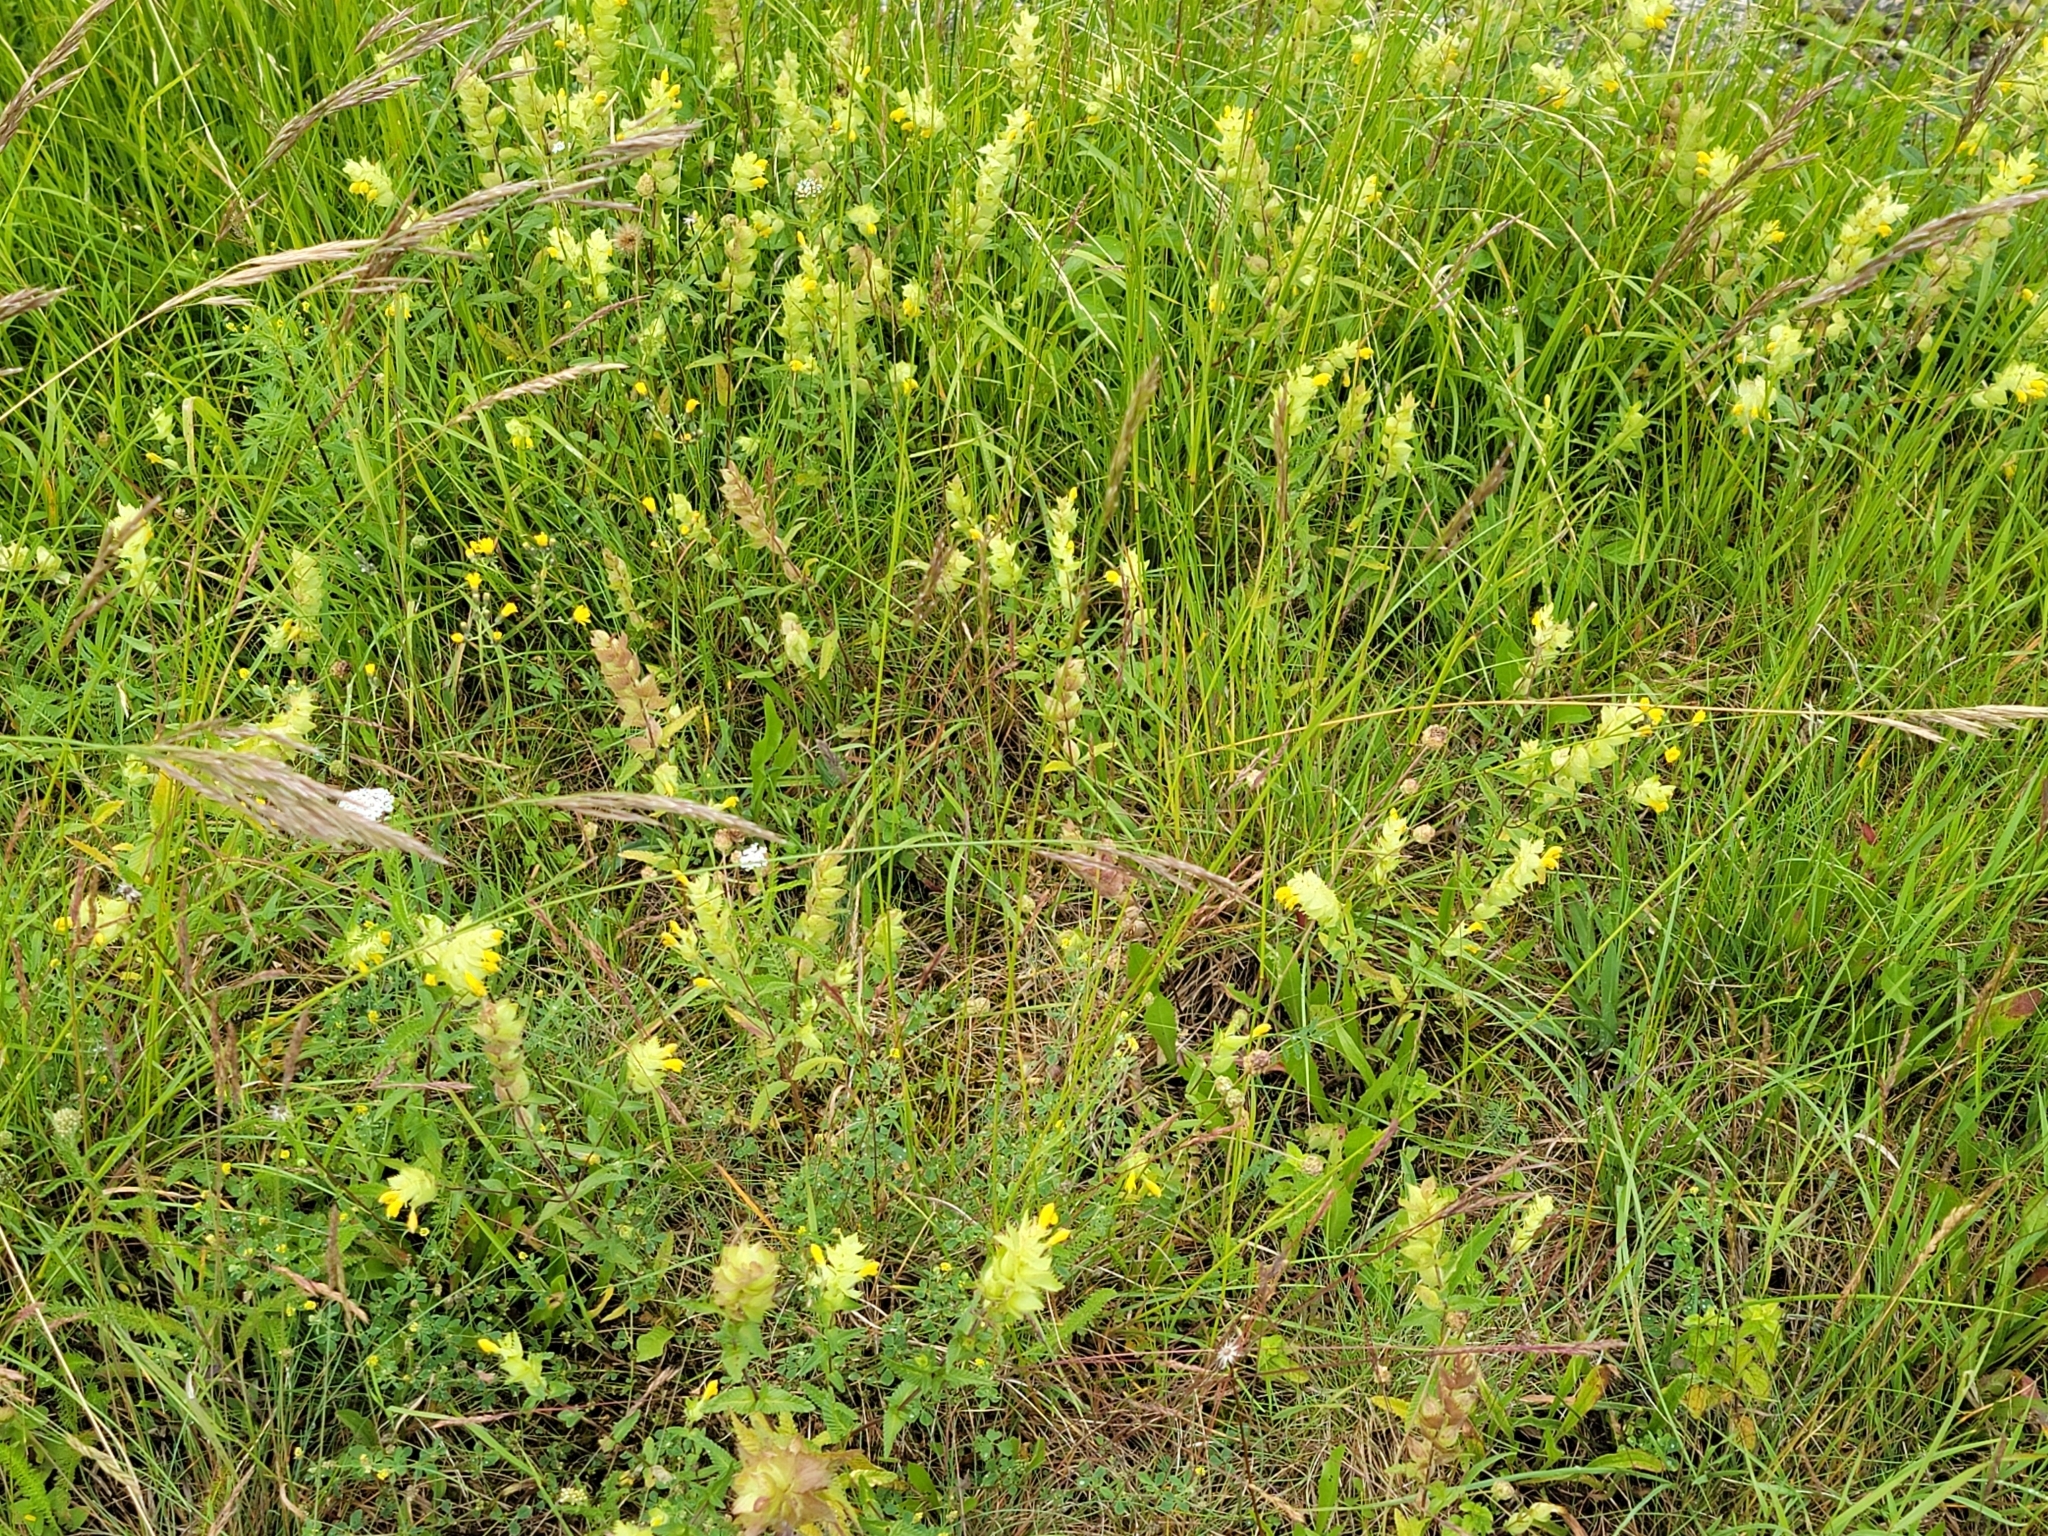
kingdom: Plantae
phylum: Tracheophyta
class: Magnoliopsida
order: Lamiales
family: Orobanchaceae
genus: Rhinanthus
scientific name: Rhinanthus alectorolophus
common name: Greater yellow-rattle
